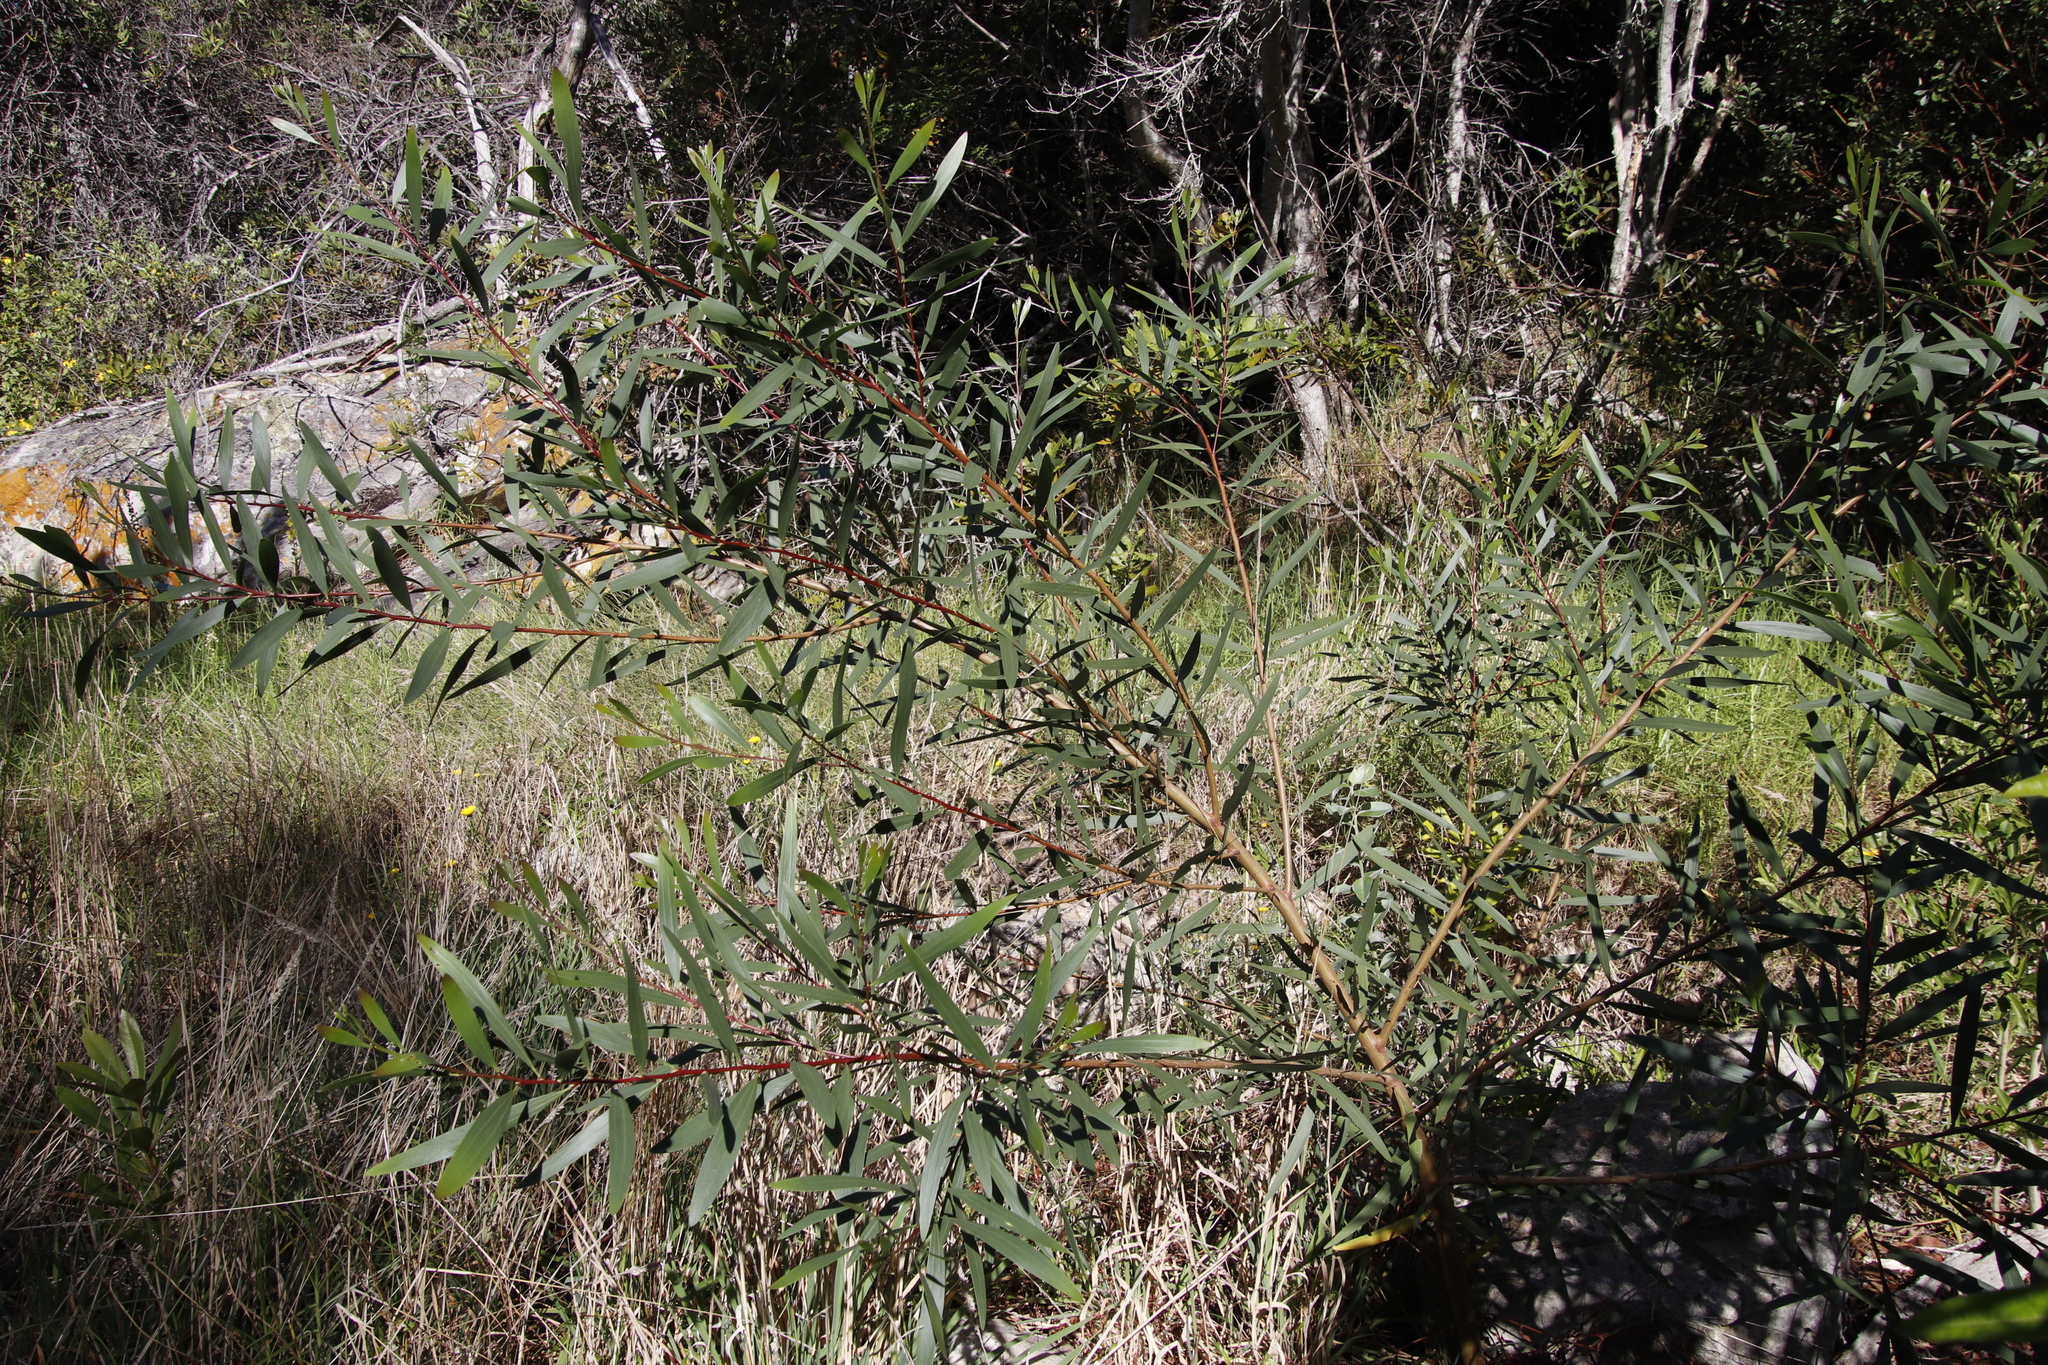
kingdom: Plantae
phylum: Tracheophyta
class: Magnoliopsida
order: Fabales
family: Fabaceae
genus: Acacia
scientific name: Acacia longifolia
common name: Sydney golden wattle
